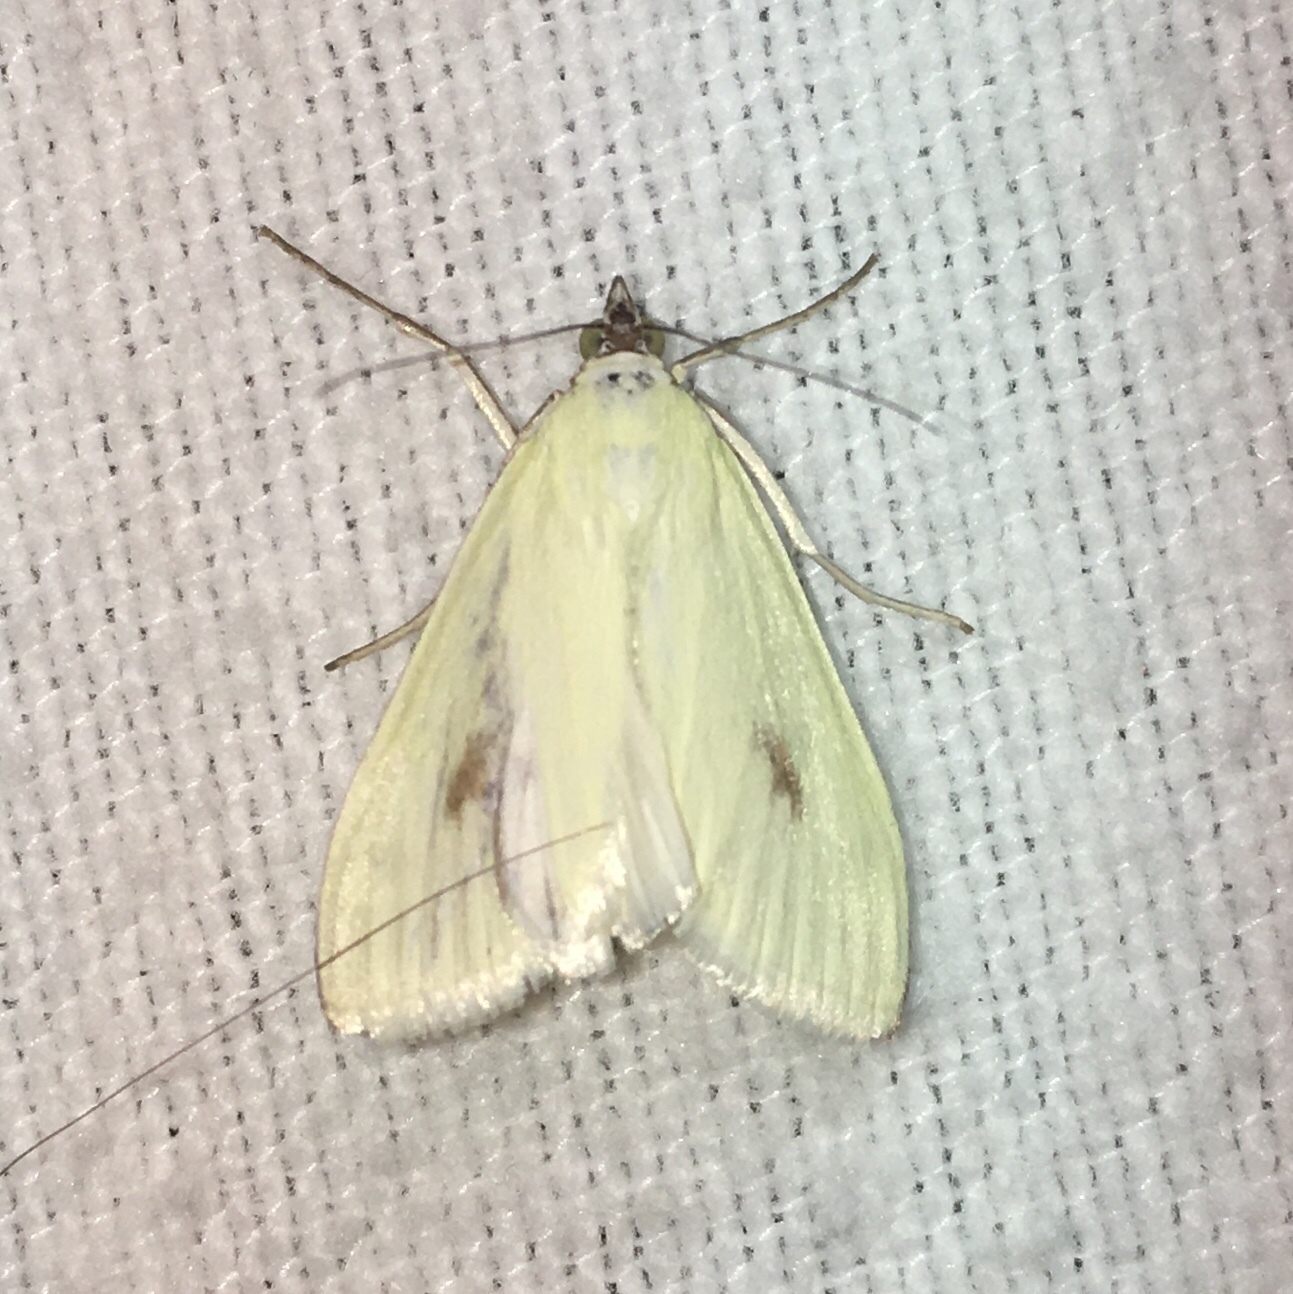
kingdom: Animalia
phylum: Arthropoda
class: Insecta
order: Lepidoptera
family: Crambidae
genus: Sitochroa
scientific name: Sitochroa palealis
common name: Greenish-yellow sitochroa moth
